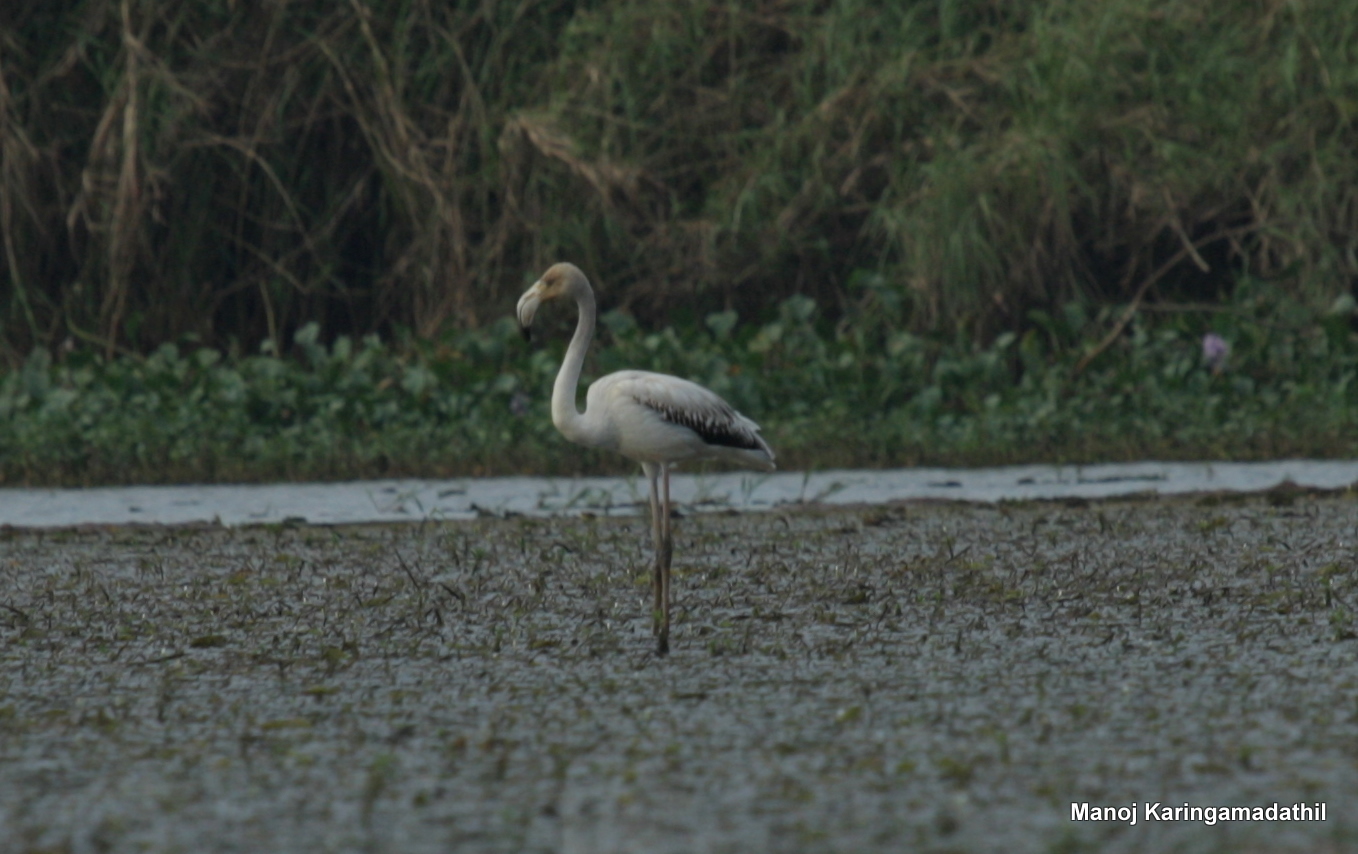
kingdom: Animalia
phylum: Chordata
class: Aves
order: Phoenicopteriformes
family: Phoenicopteridae
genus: Phoenicopterus
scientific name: Phoenicopterus roseus
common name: Greater flamingo
